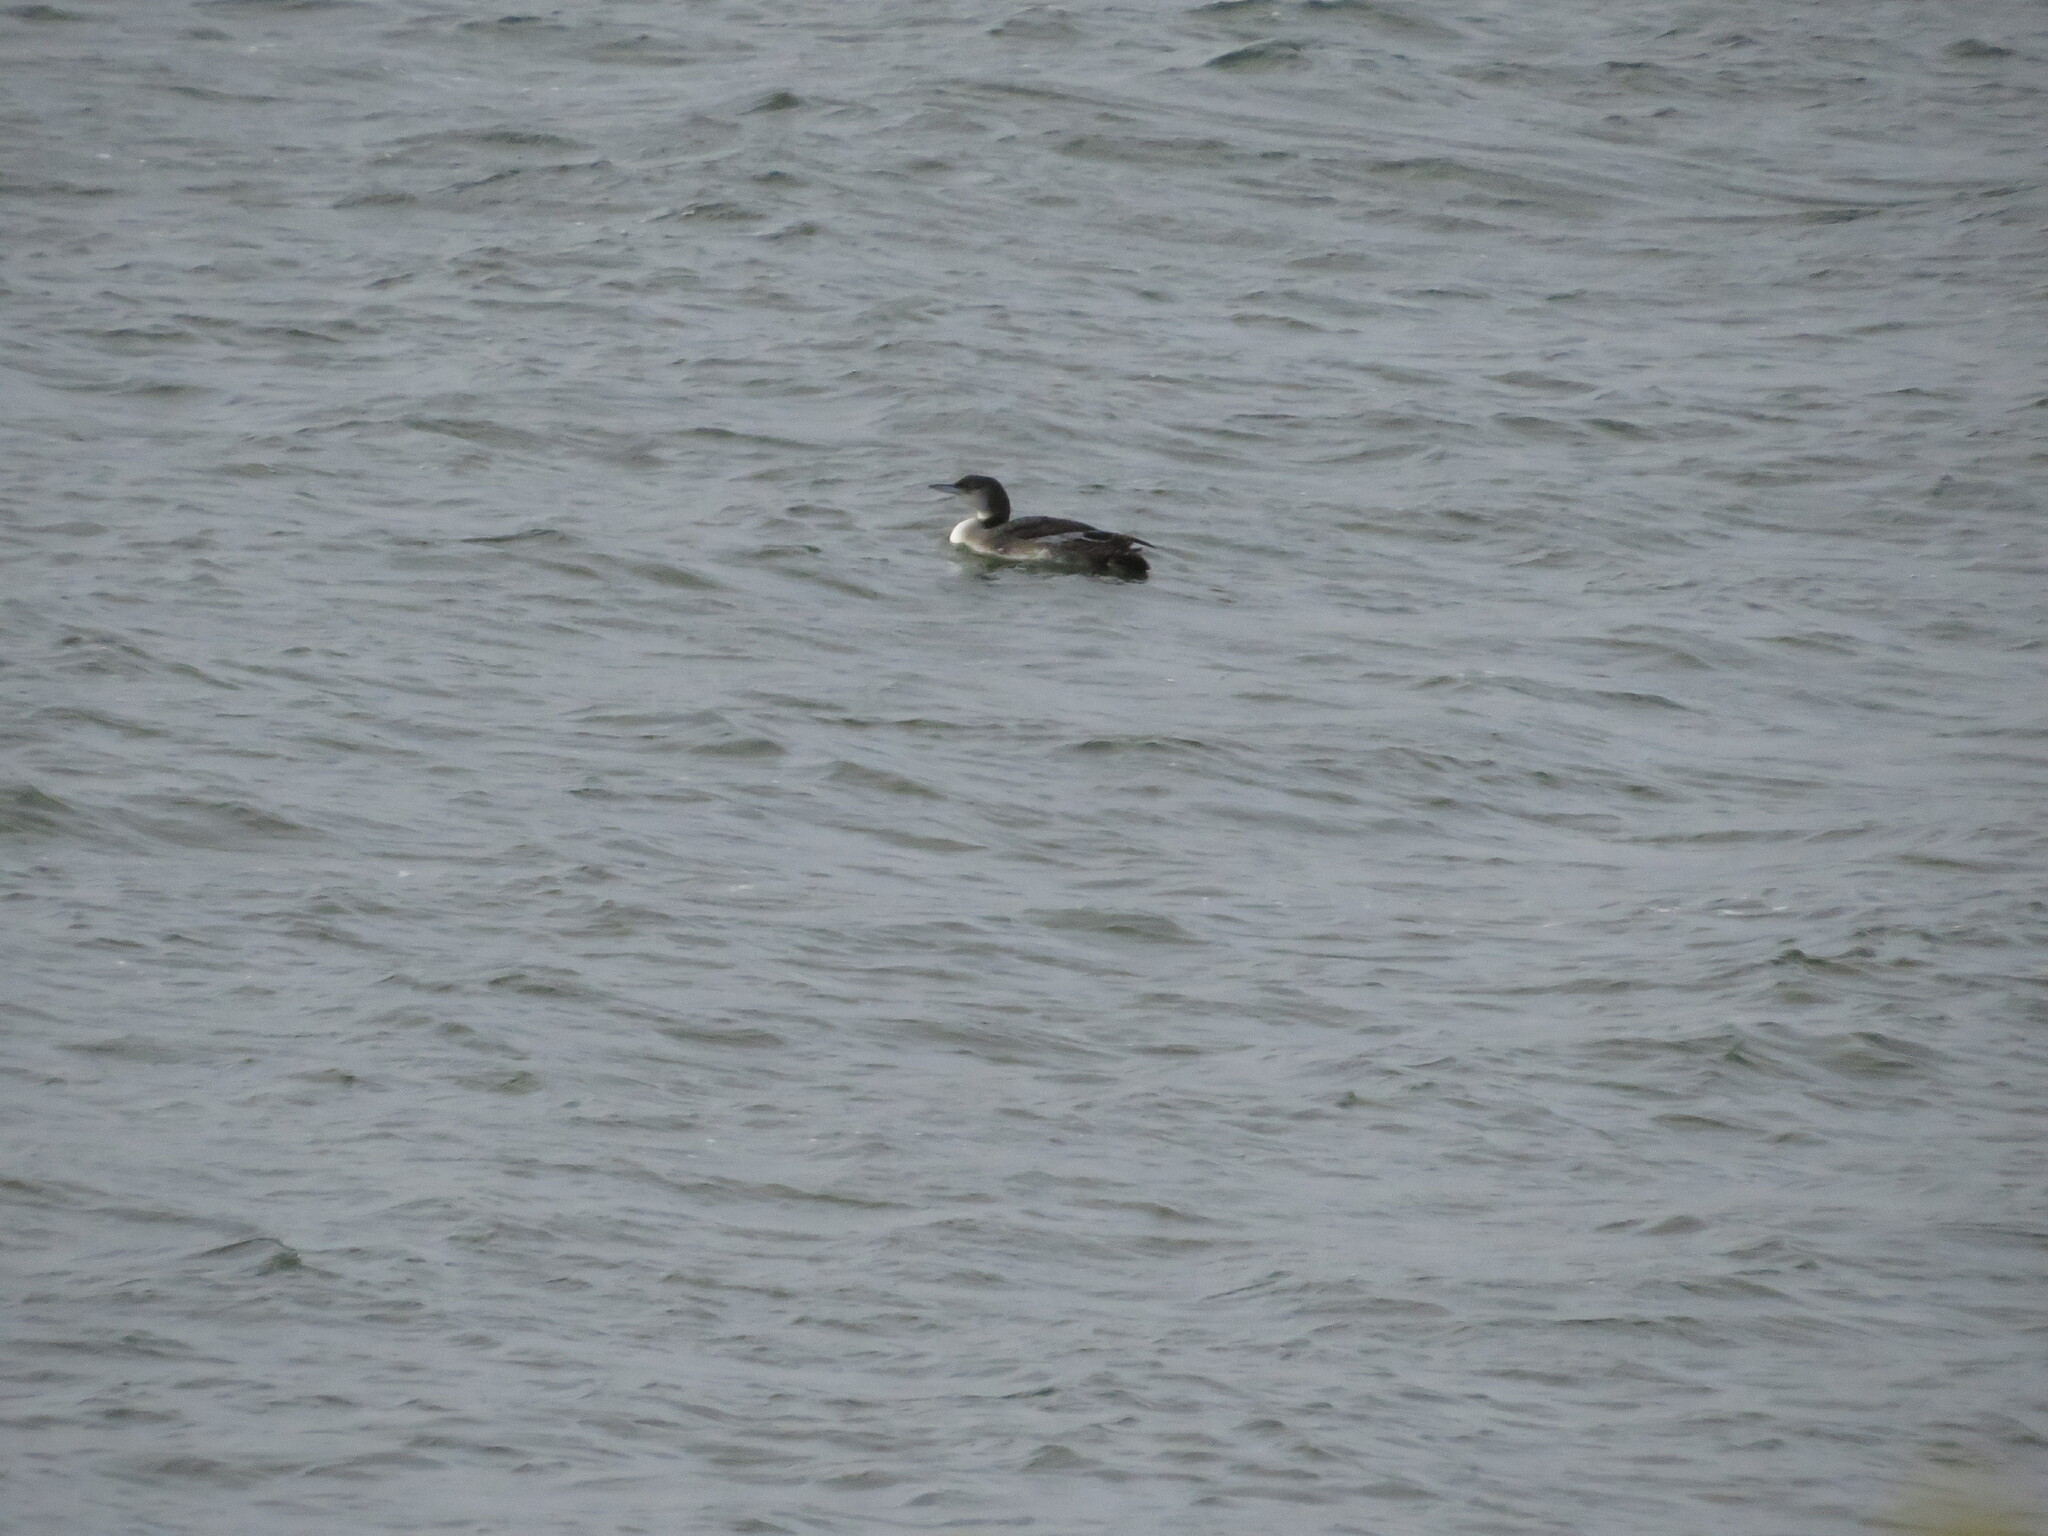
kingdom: Animalia
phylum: Chordata
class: Aves
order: Gaviiformes
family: Gaviidae
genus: Gavia
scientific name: Gavia immer
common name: Common loon
